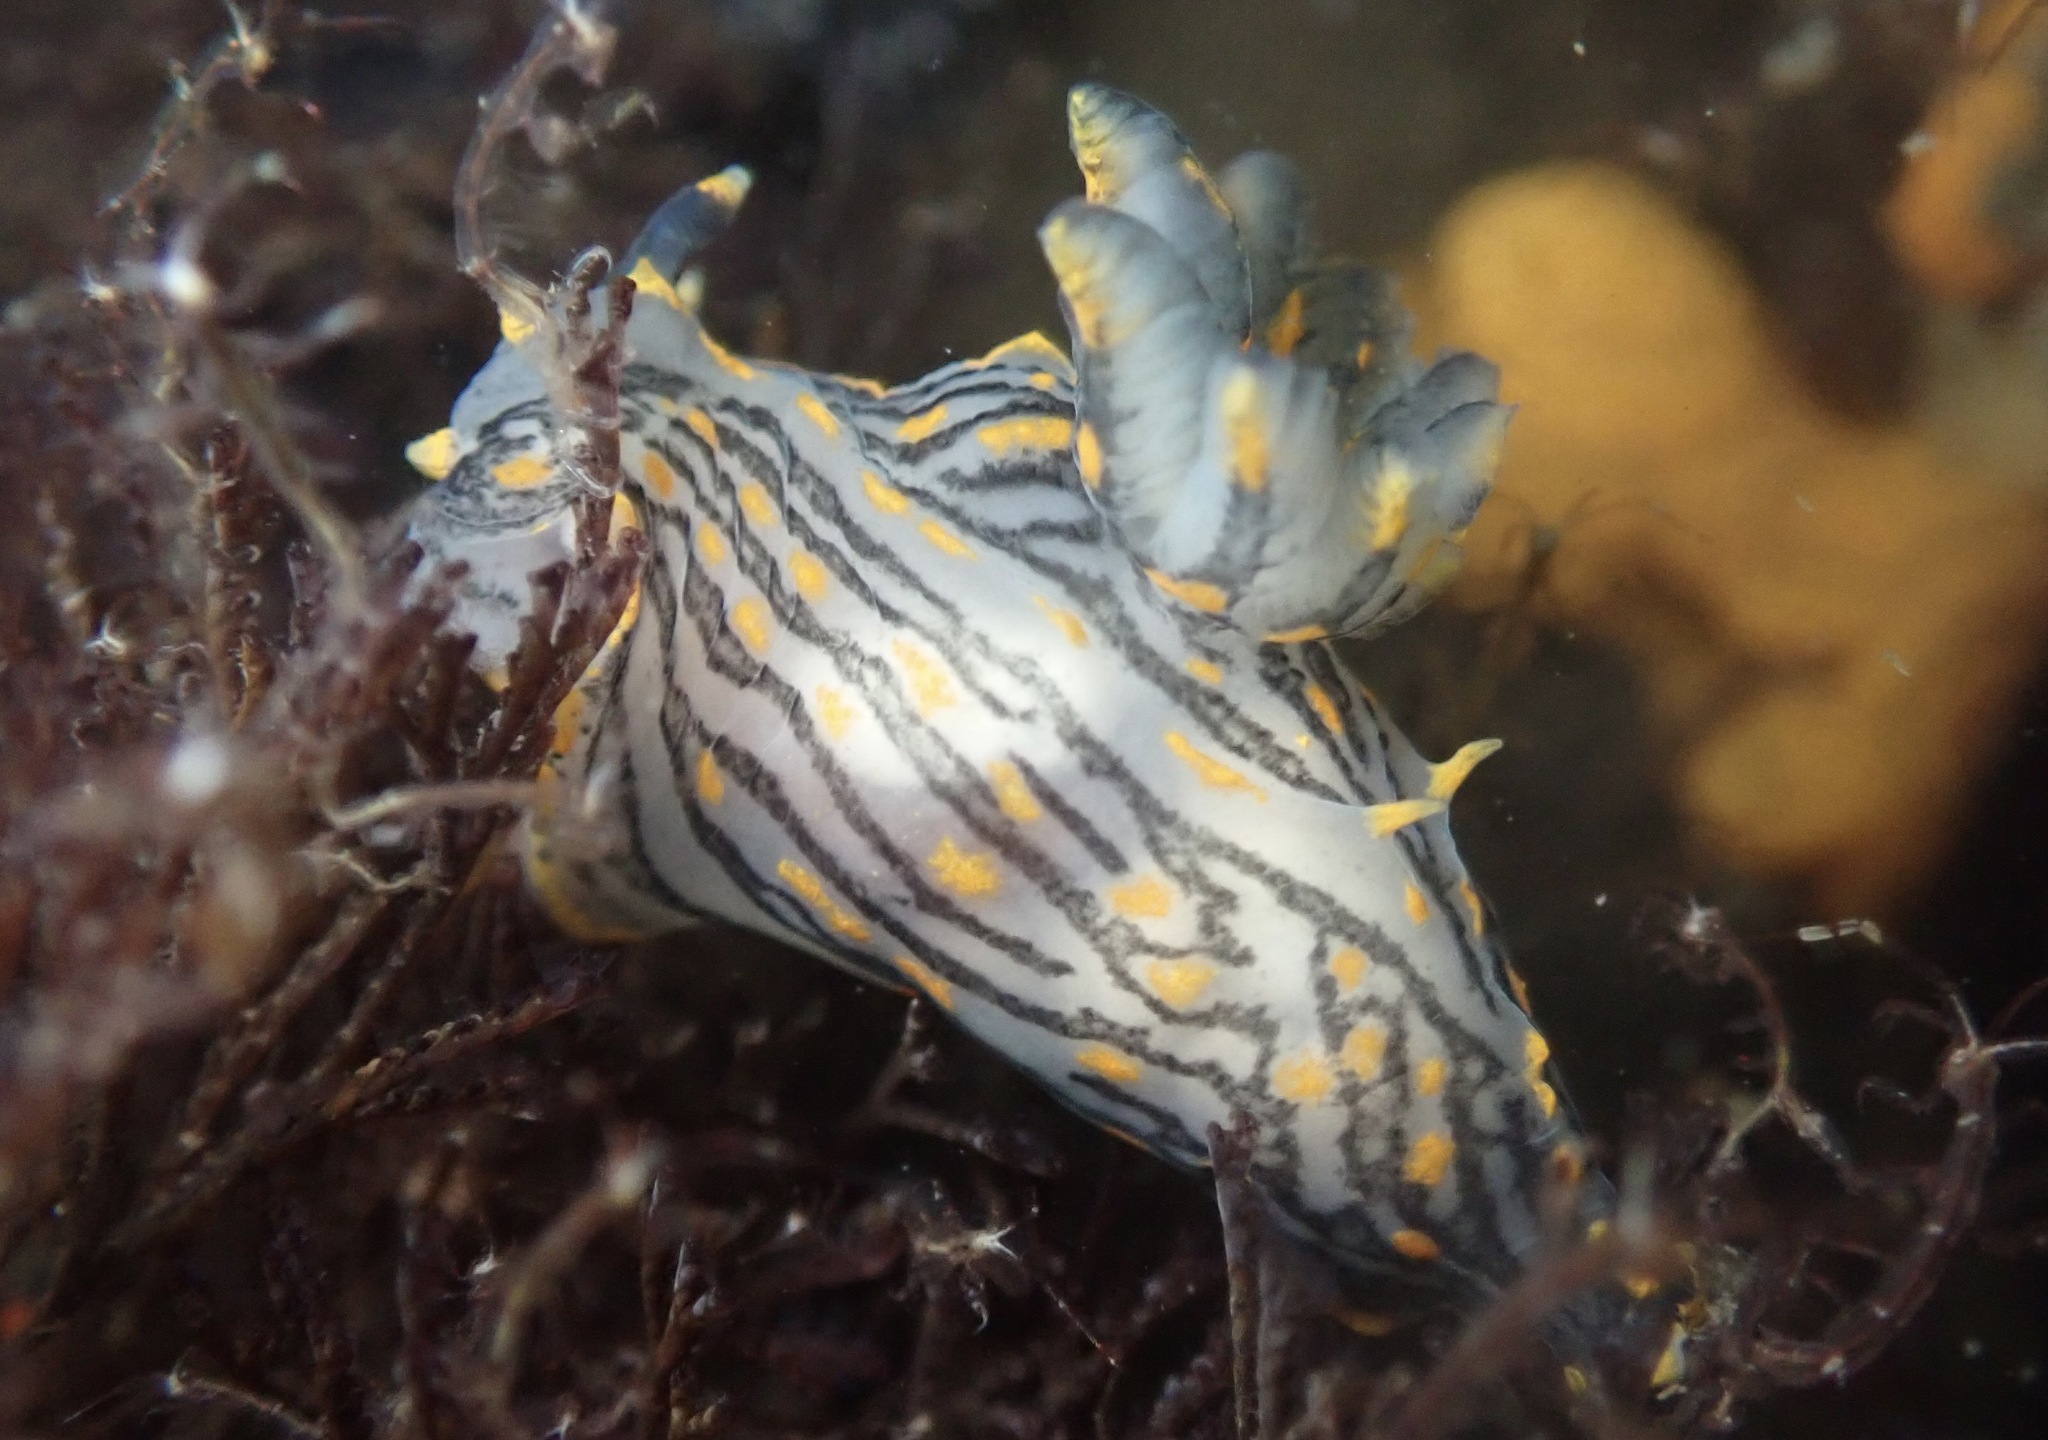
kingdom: Animalia
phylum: Mollusca
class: Gastropoda
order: Nudibranchia
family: Polyceridae
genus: Polycera
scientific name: Polycera atra
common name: Orange-spike polycera
